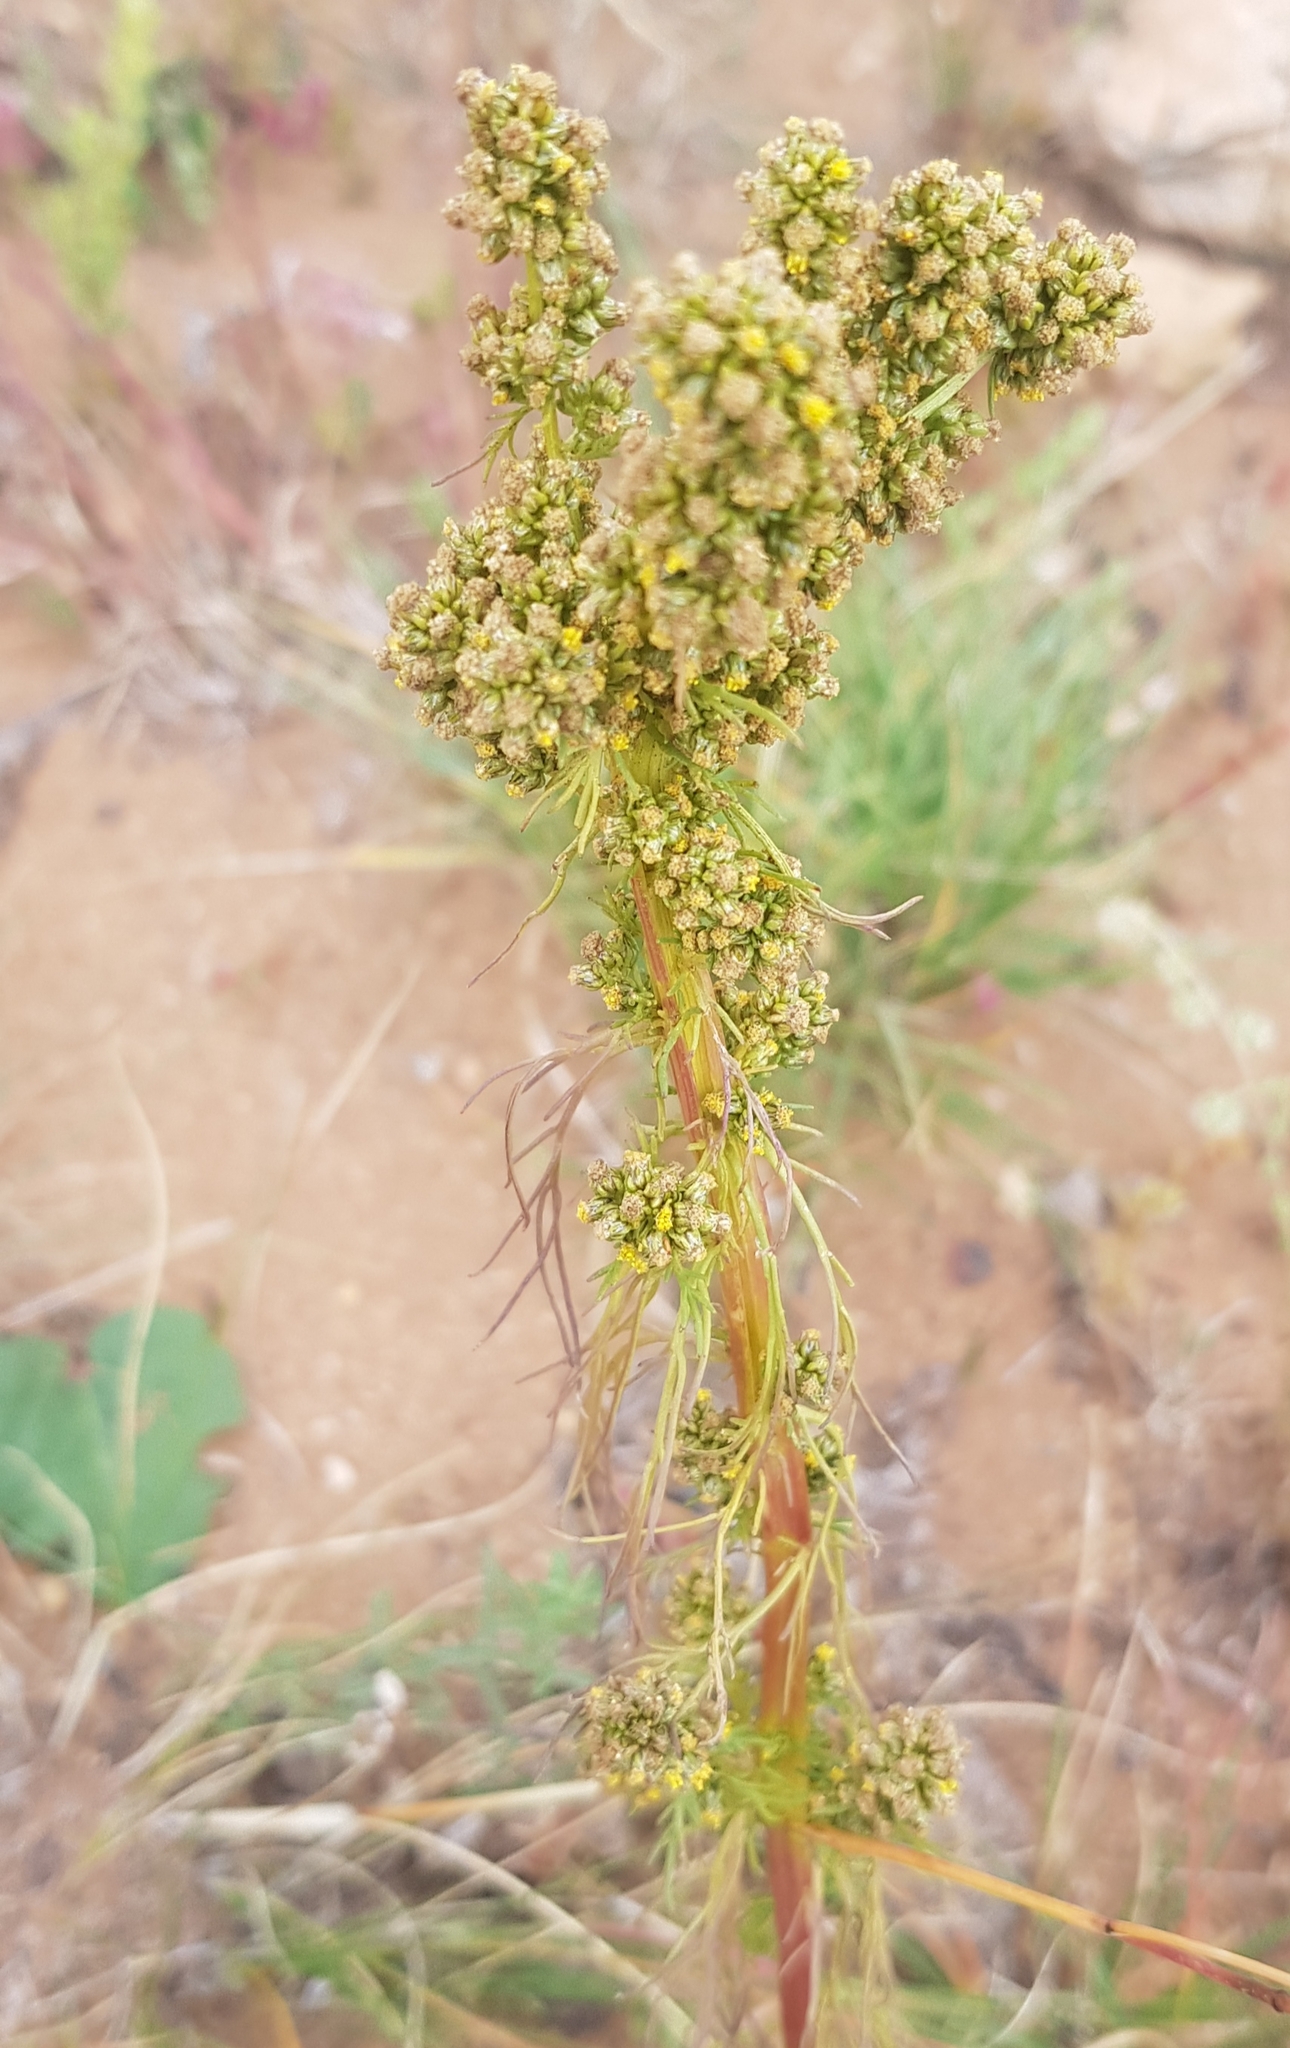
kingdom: Plantae
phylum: Tracheophyta
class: Magnoliopsida
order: Asterales
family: Asteraceae
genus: Artemisia
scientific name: Artemisia palustris
